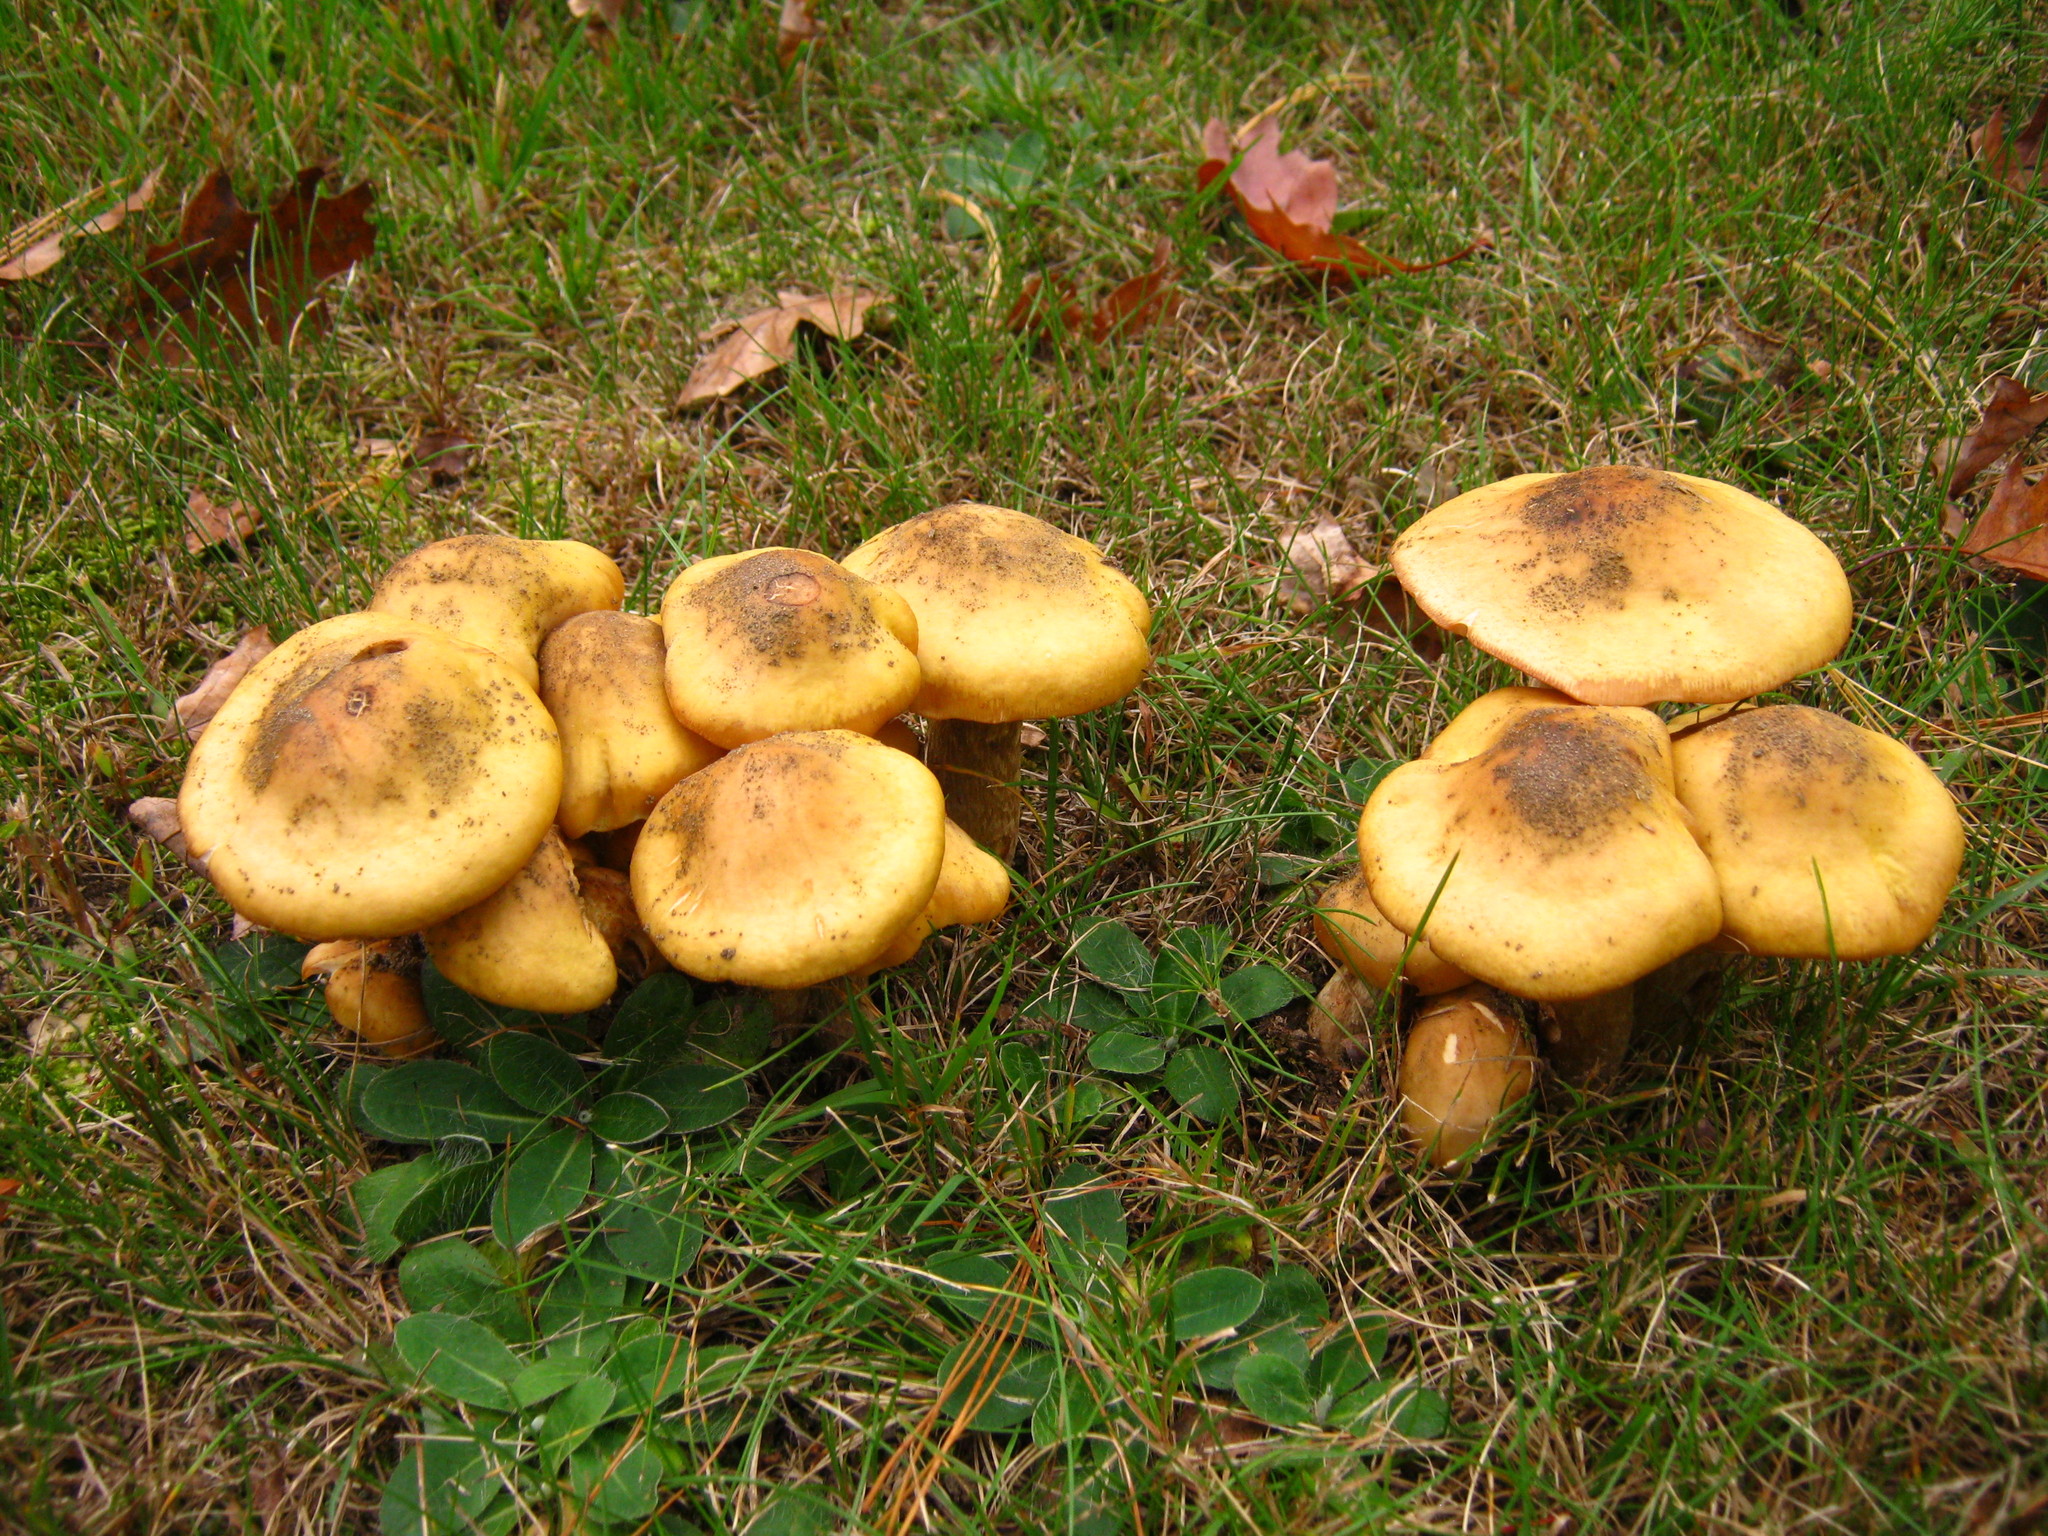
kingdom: Fungi
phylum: Basidiomycota
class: Agaricomycetes
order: Agaricales
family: Physalacriaceae
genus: Armillaria
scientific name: Armillaria mellea
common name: Honey fungus
